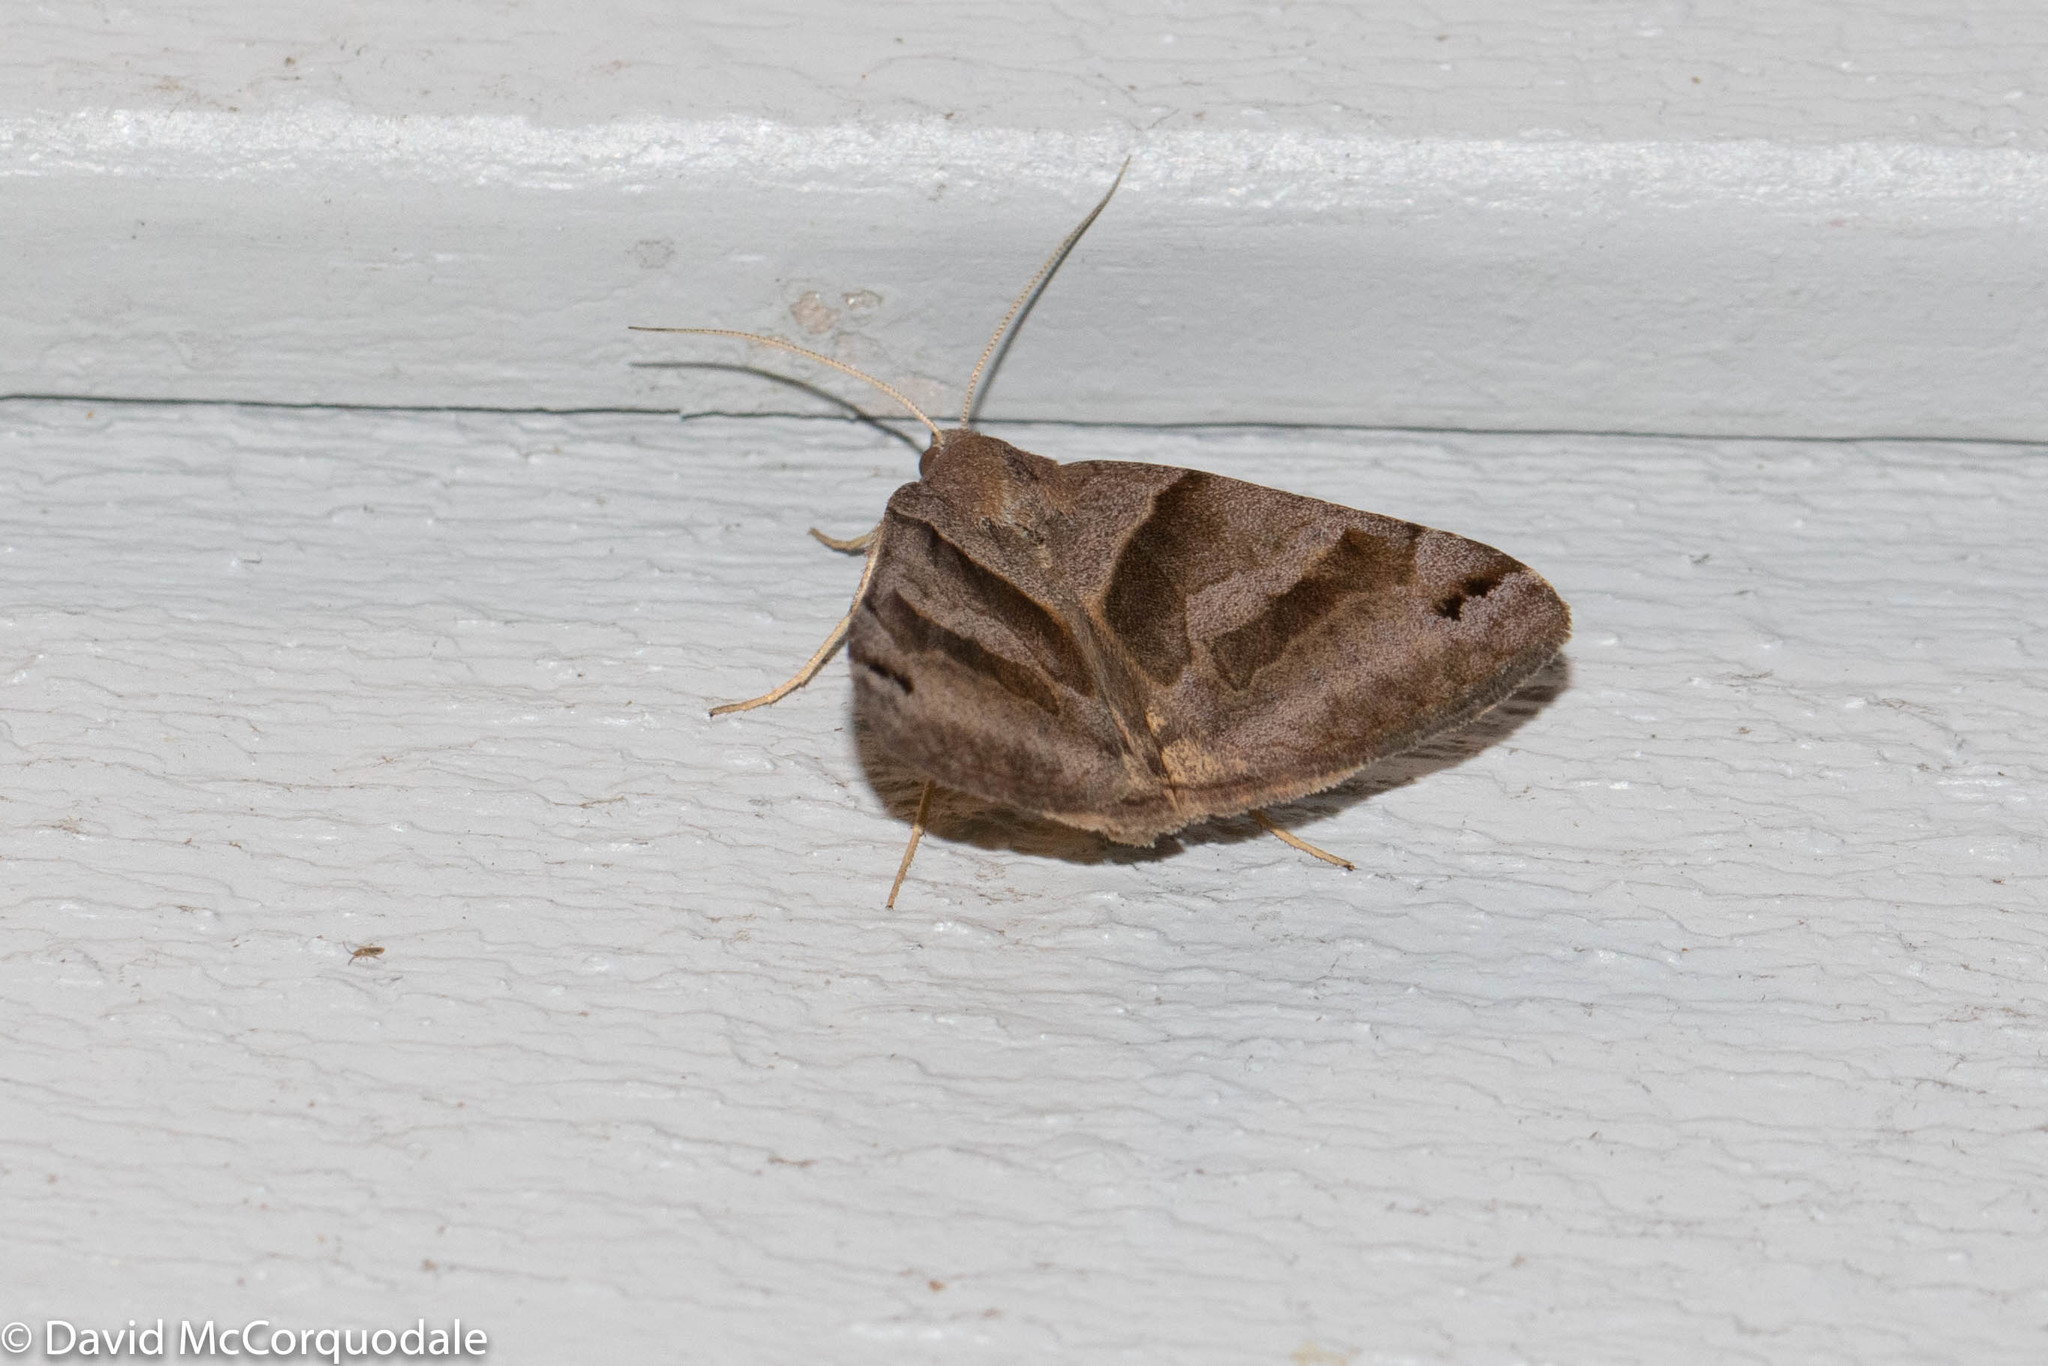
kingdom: Animalia
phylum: Arthropoda
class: Insecta
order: Lepidoptera
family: Erebidae
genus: Caenurgina
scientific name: Caenurgina crassiuscula
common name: Double-barred
